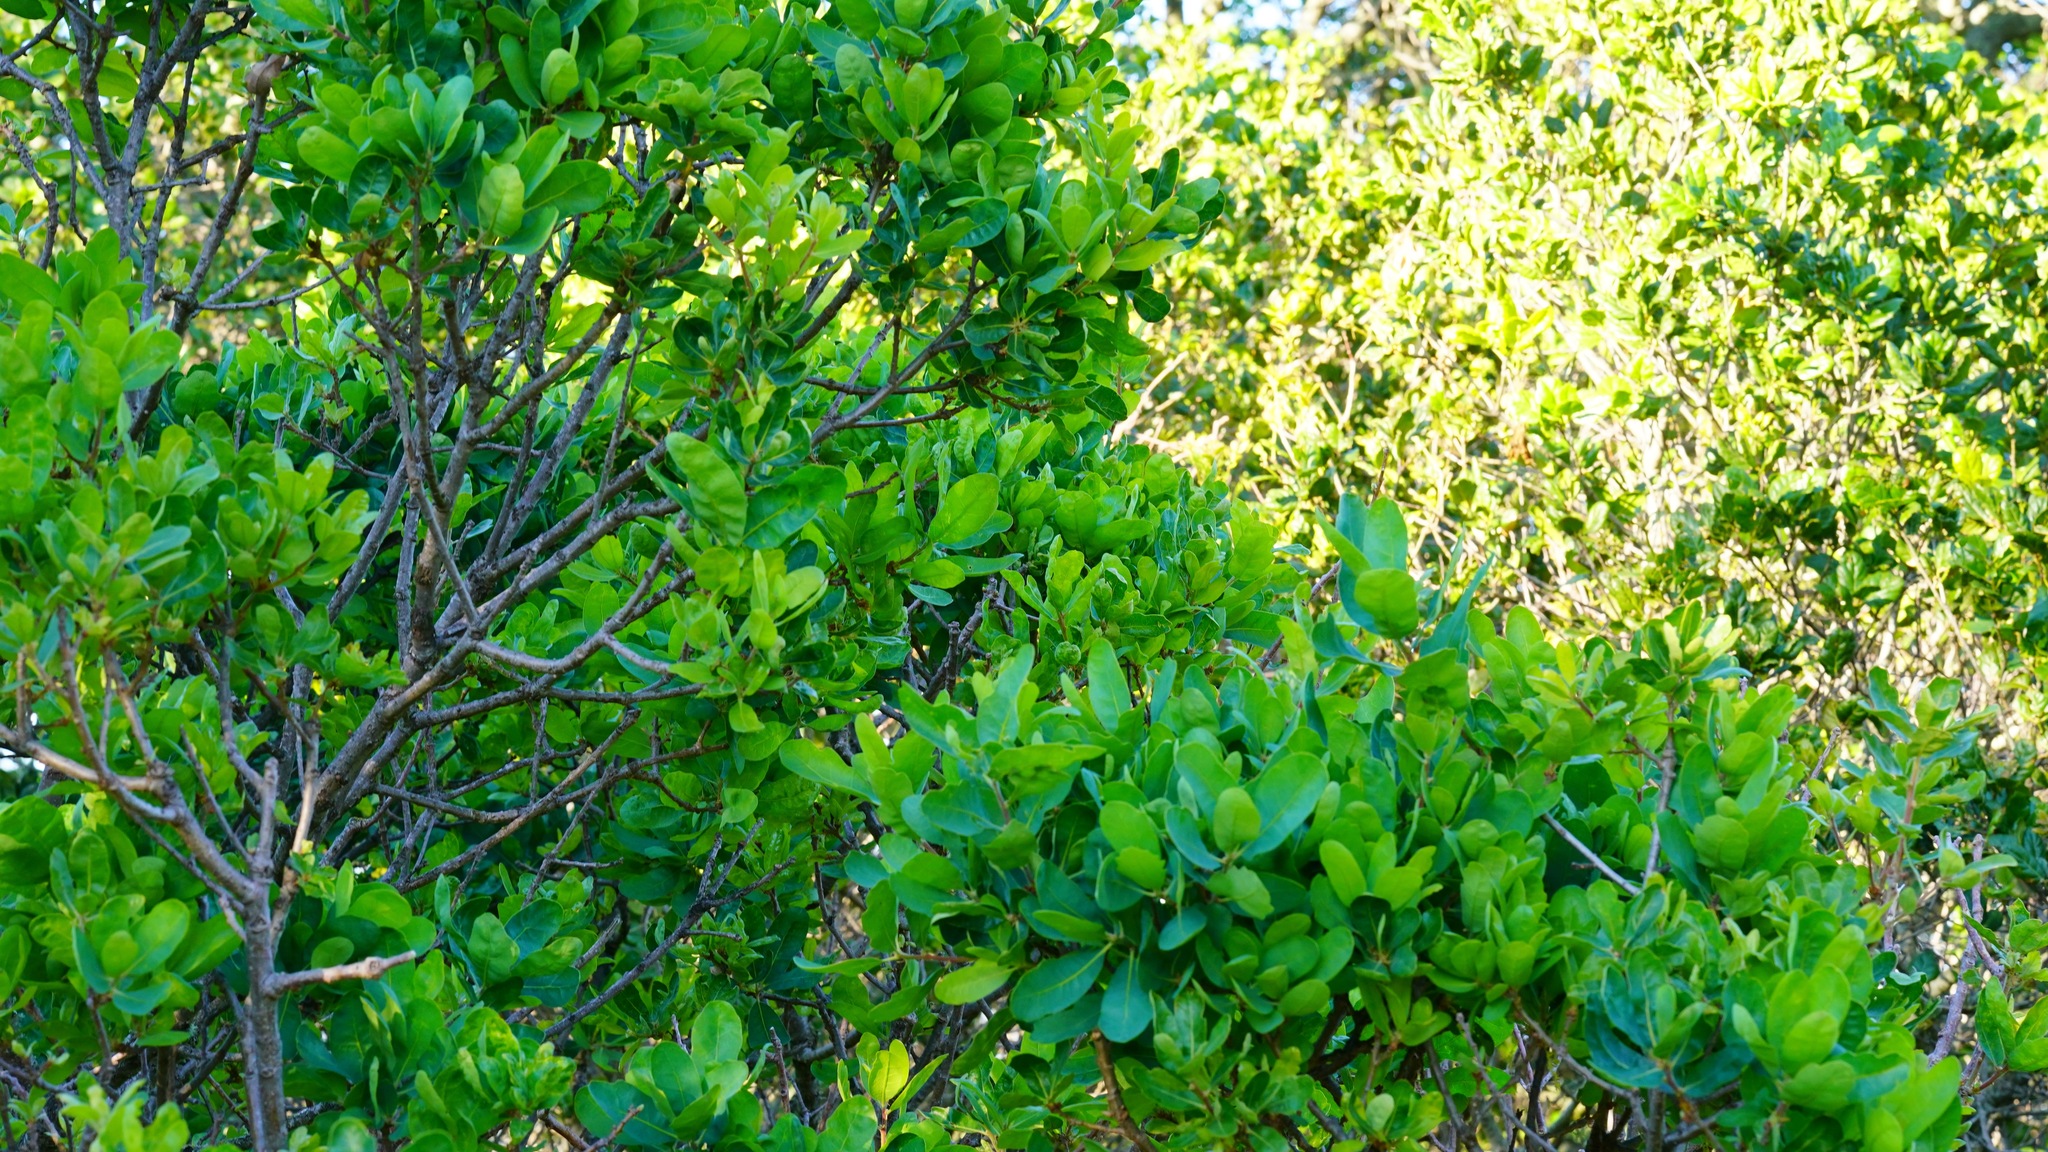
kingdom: Plantae
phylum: Tracheophyta
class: Magnoliopsida
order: Fagales
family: Fagaceae
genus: Quercus
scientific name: Quercus douglasii
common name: Blue oak
